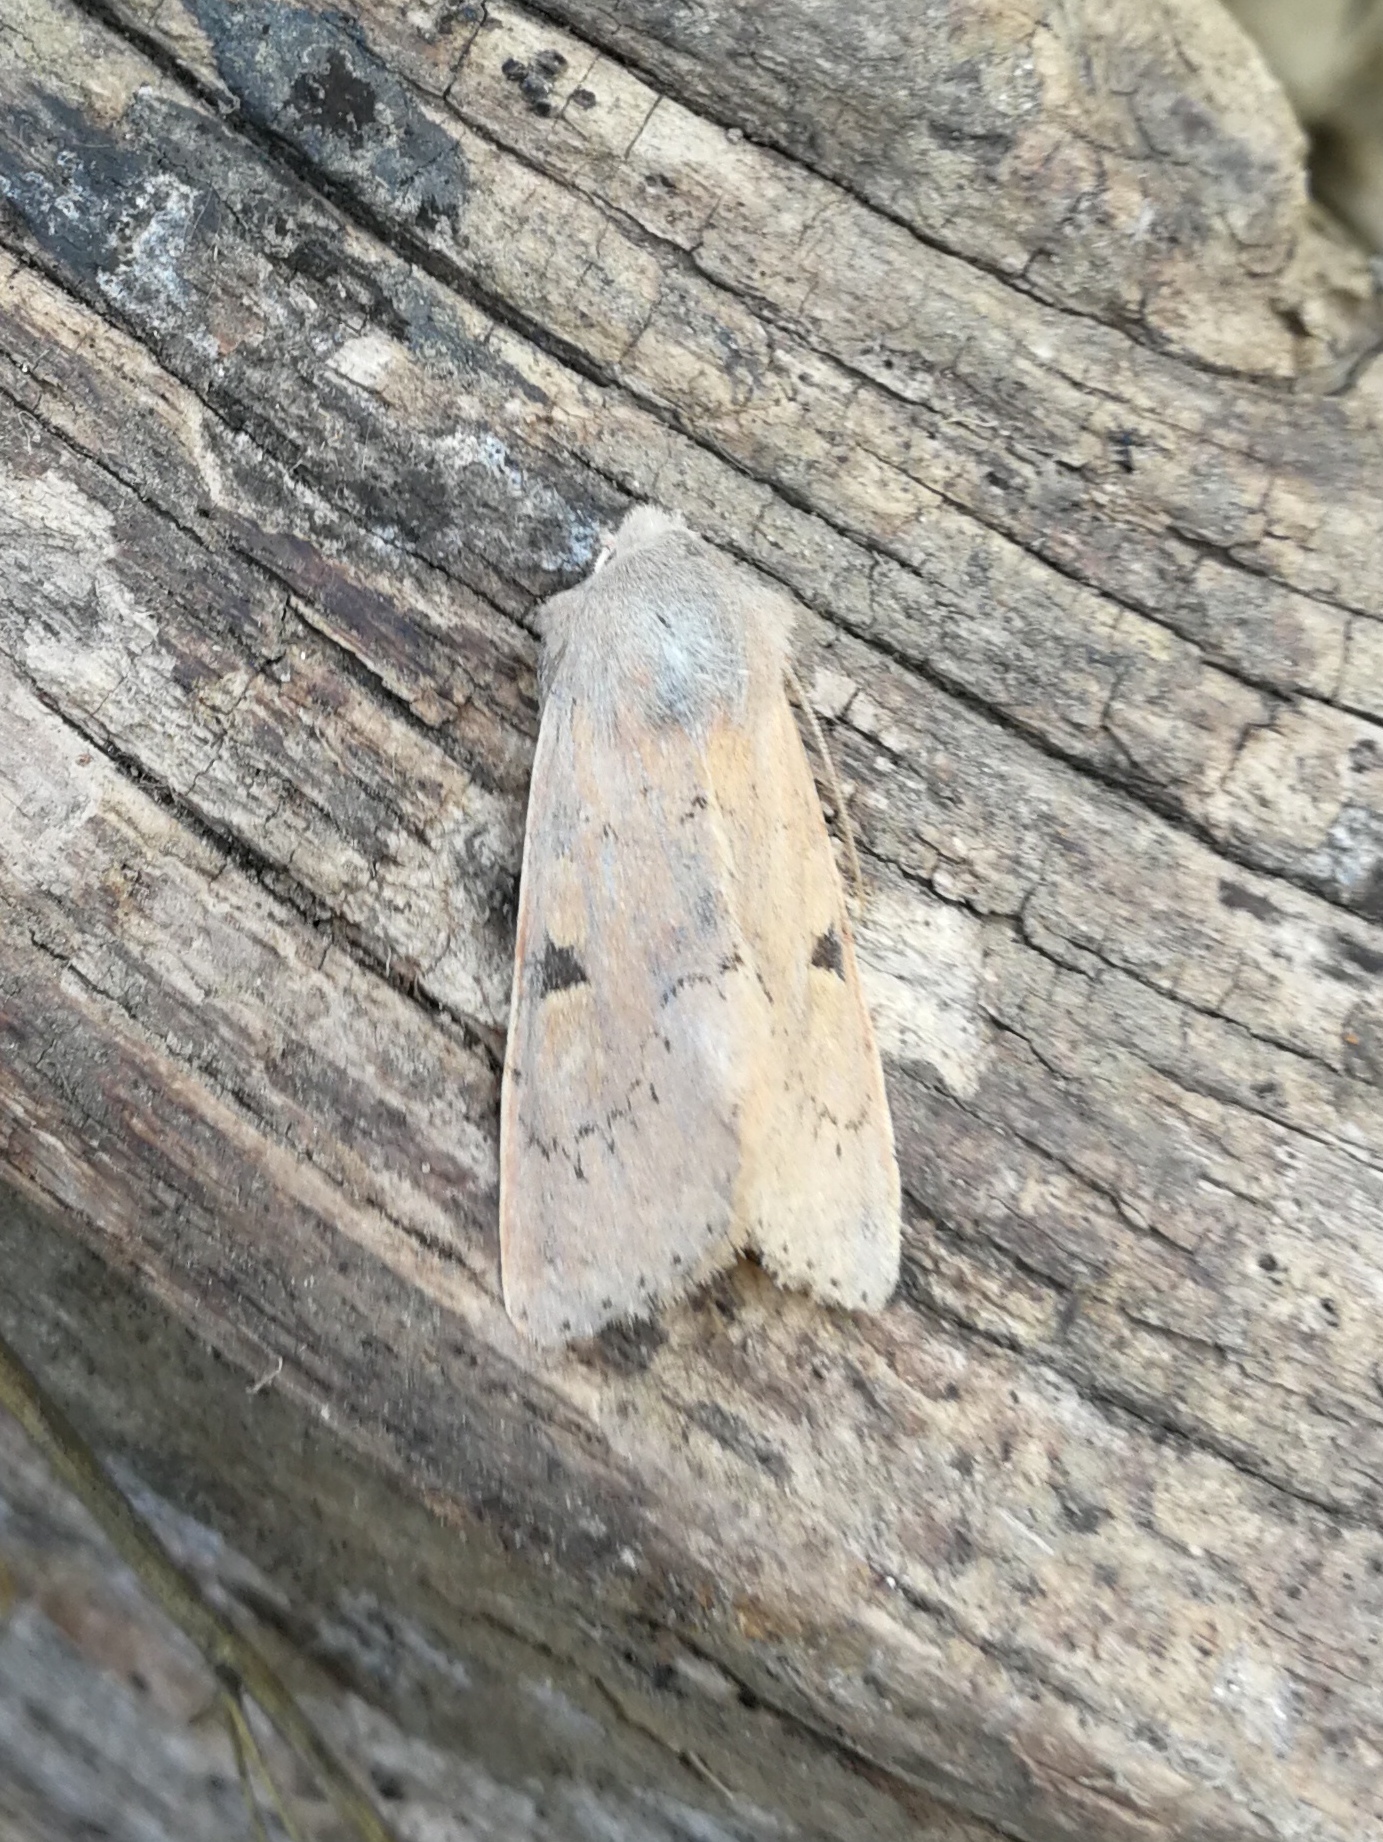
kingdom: Animalia
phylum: Arthropoda
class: Insecta
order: Lepidoptera
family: Noctuidae
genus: Ammopolia
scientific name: Ammopolia witzenmanni
